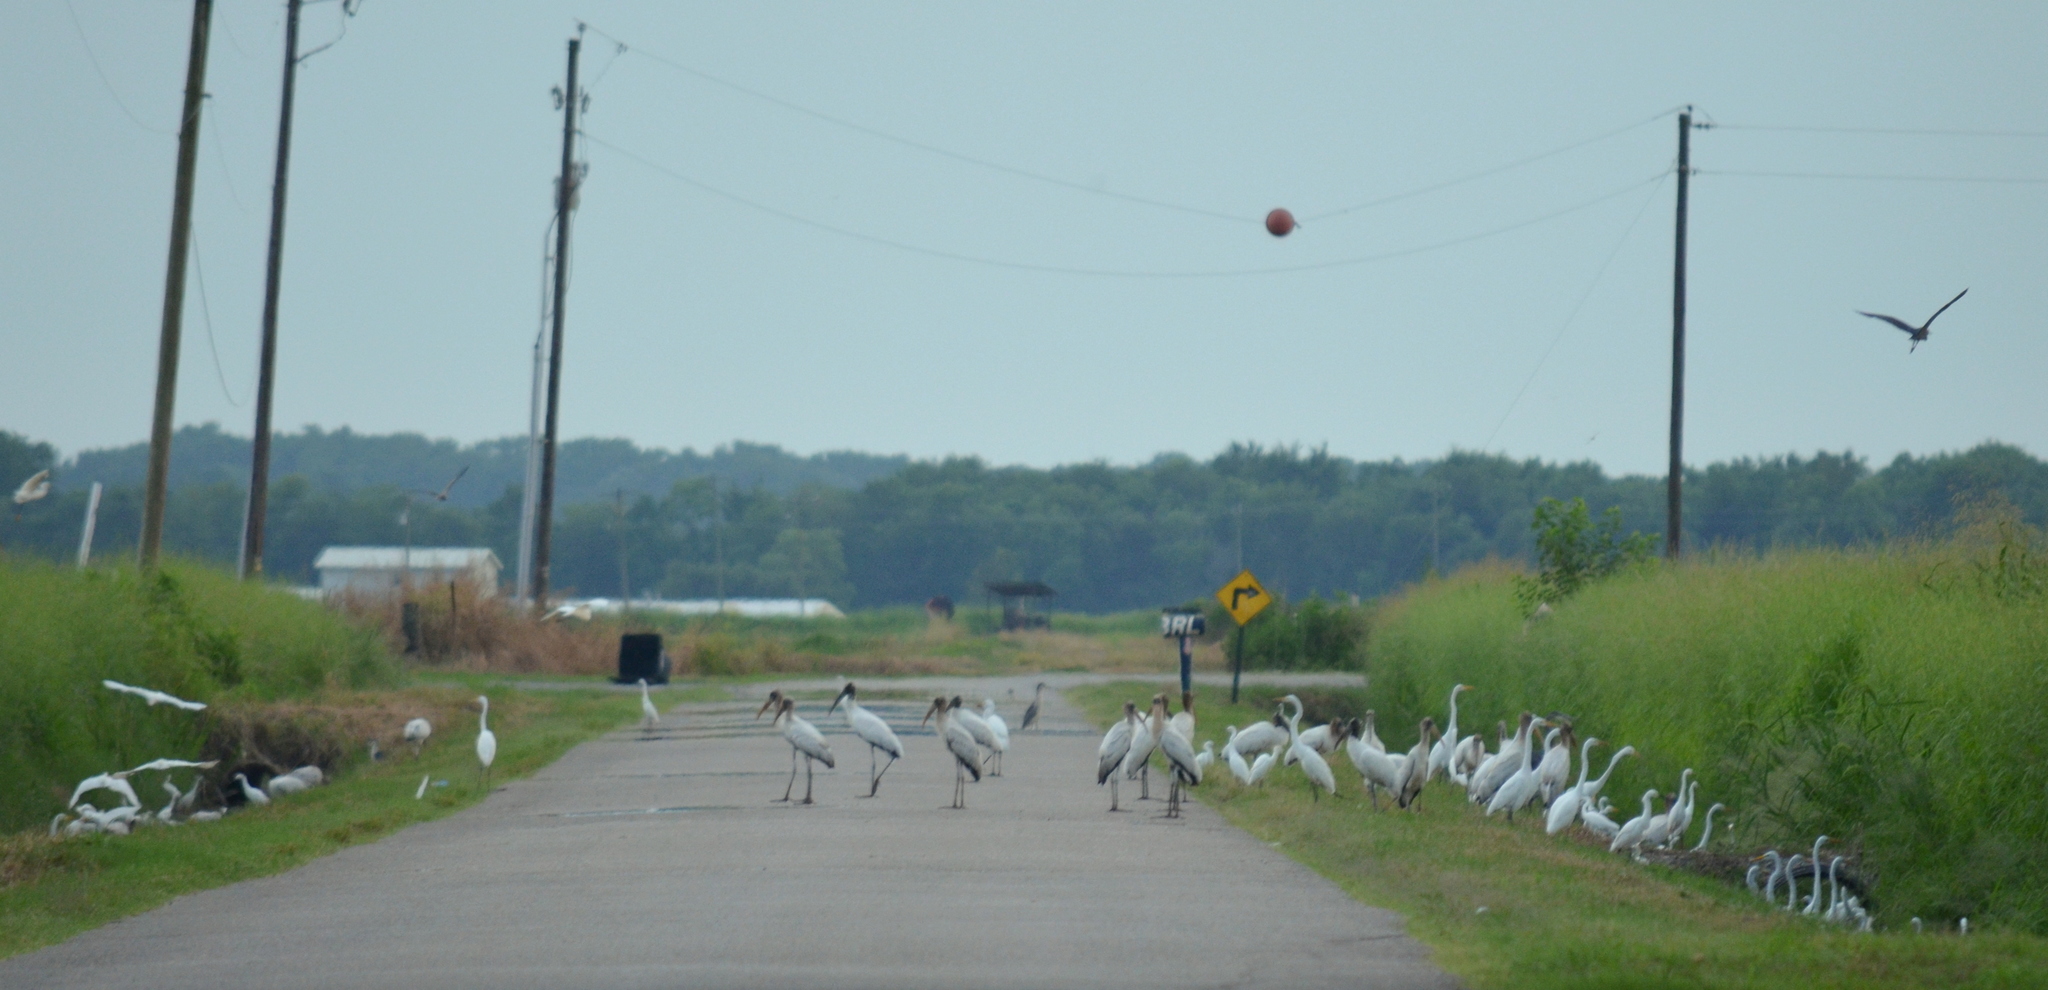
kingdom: Animalia
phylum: Chordata
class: Aves
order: Ciconiiformes
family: Ciconiidae
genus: Mycteria
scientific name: Mycteria americana
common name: Wood stork
